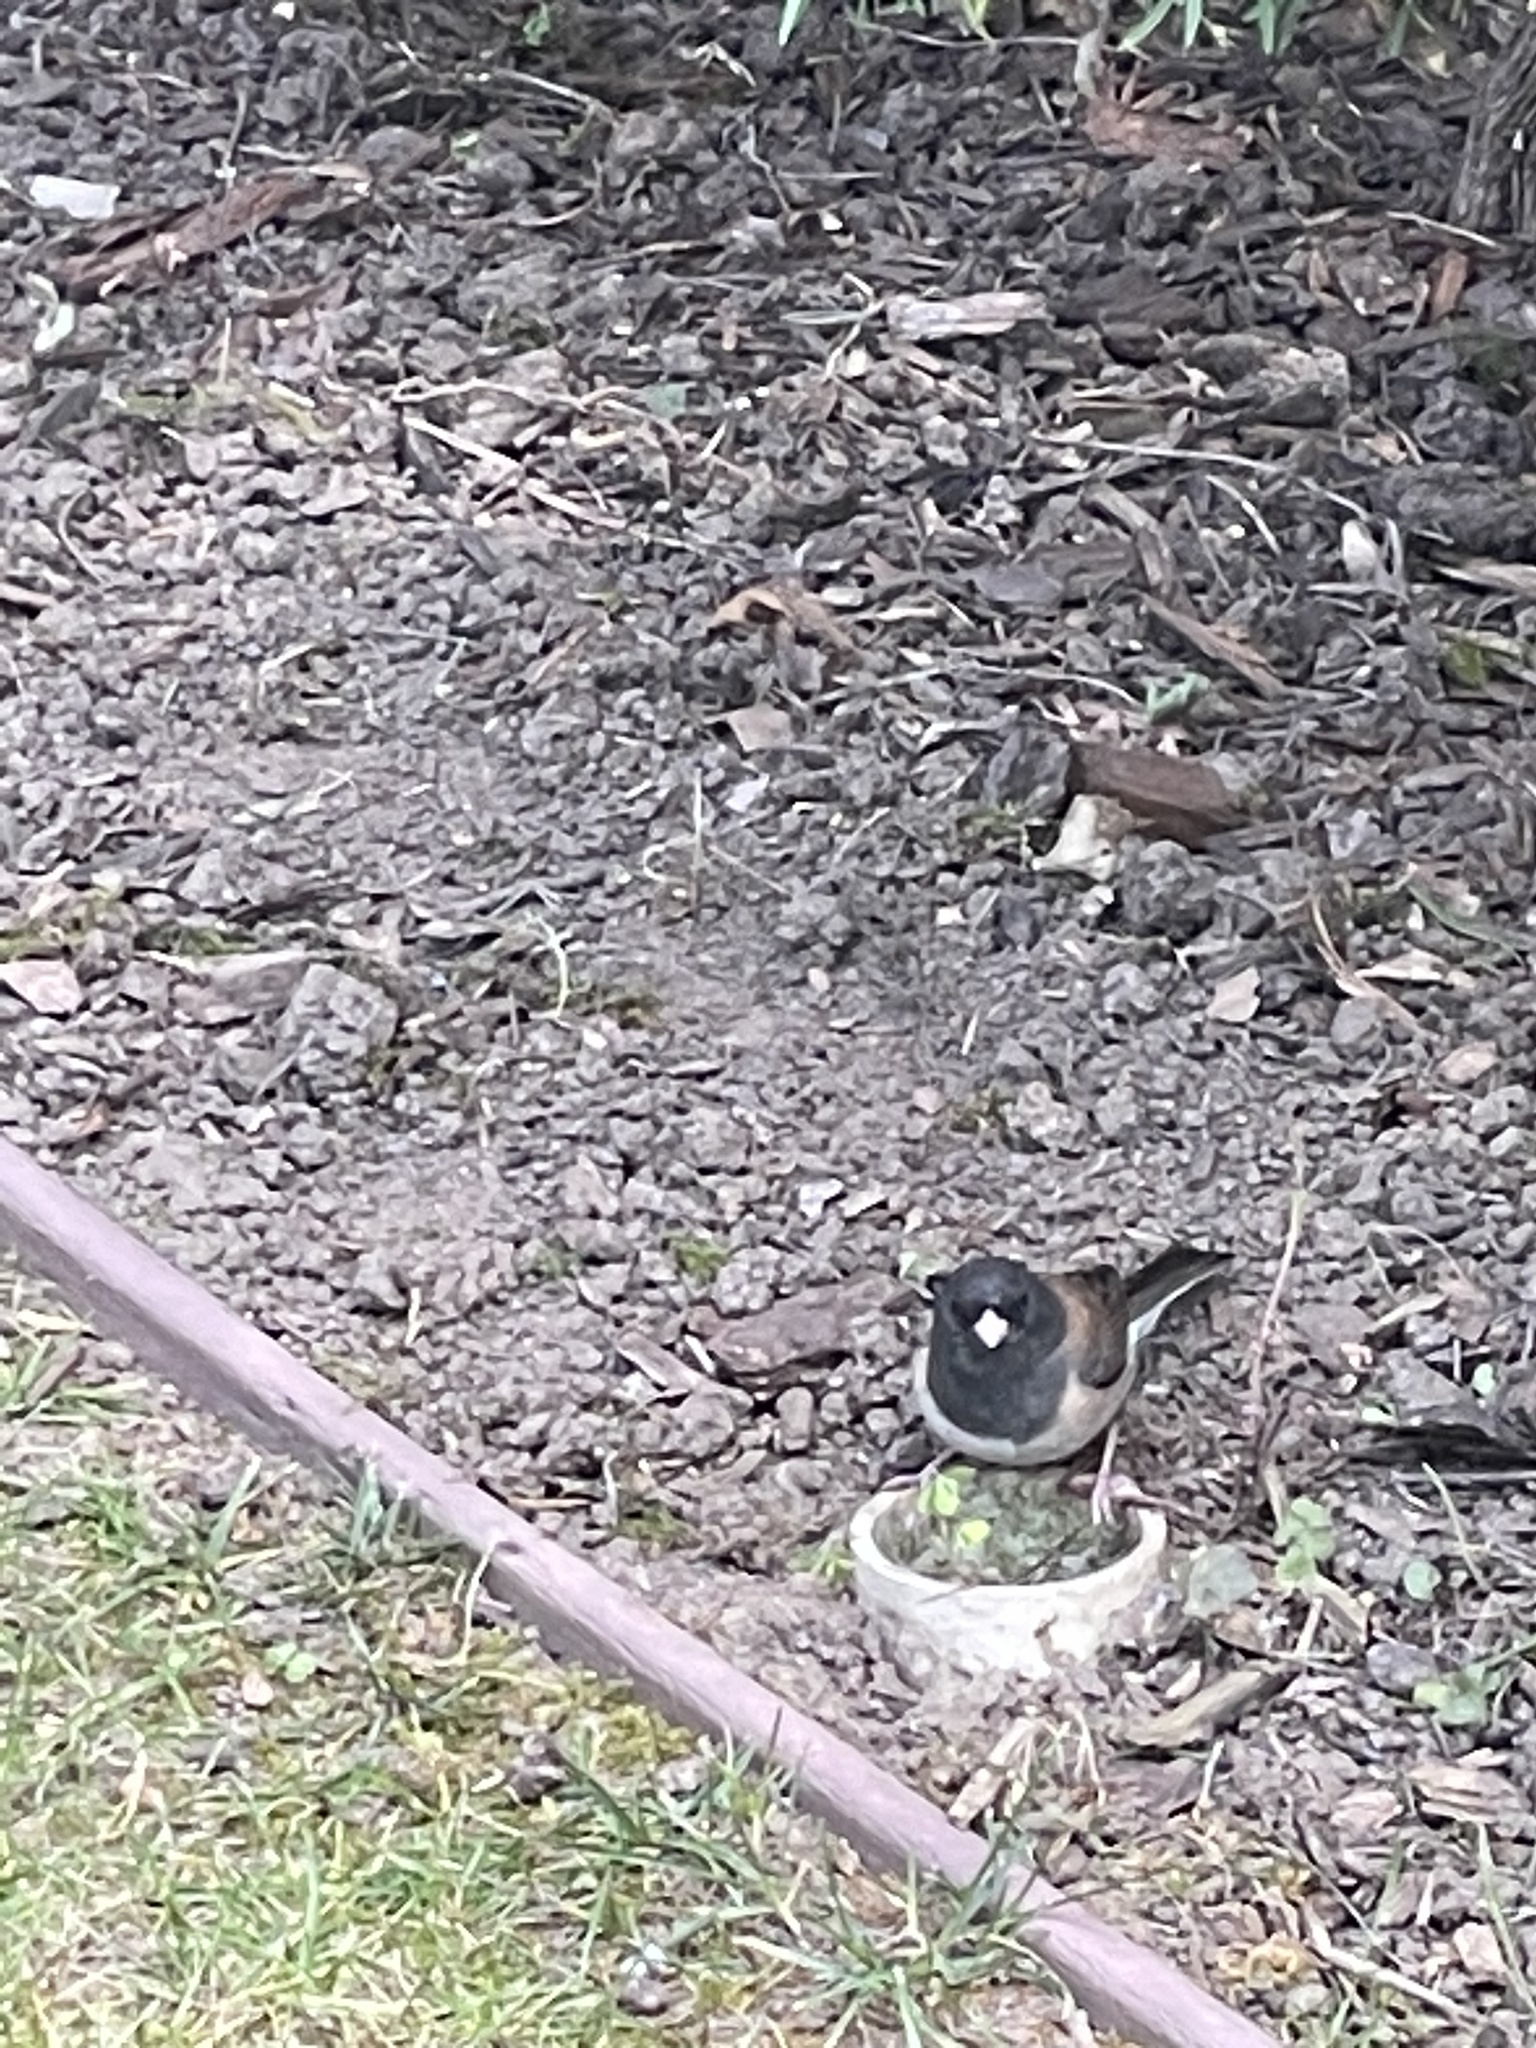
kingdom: Animalia
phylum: Chordata
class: Aves
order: Passeriformes
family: Passerellidae
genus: Junco
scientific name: Junco hyemalis
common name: Dark-eyed junco
